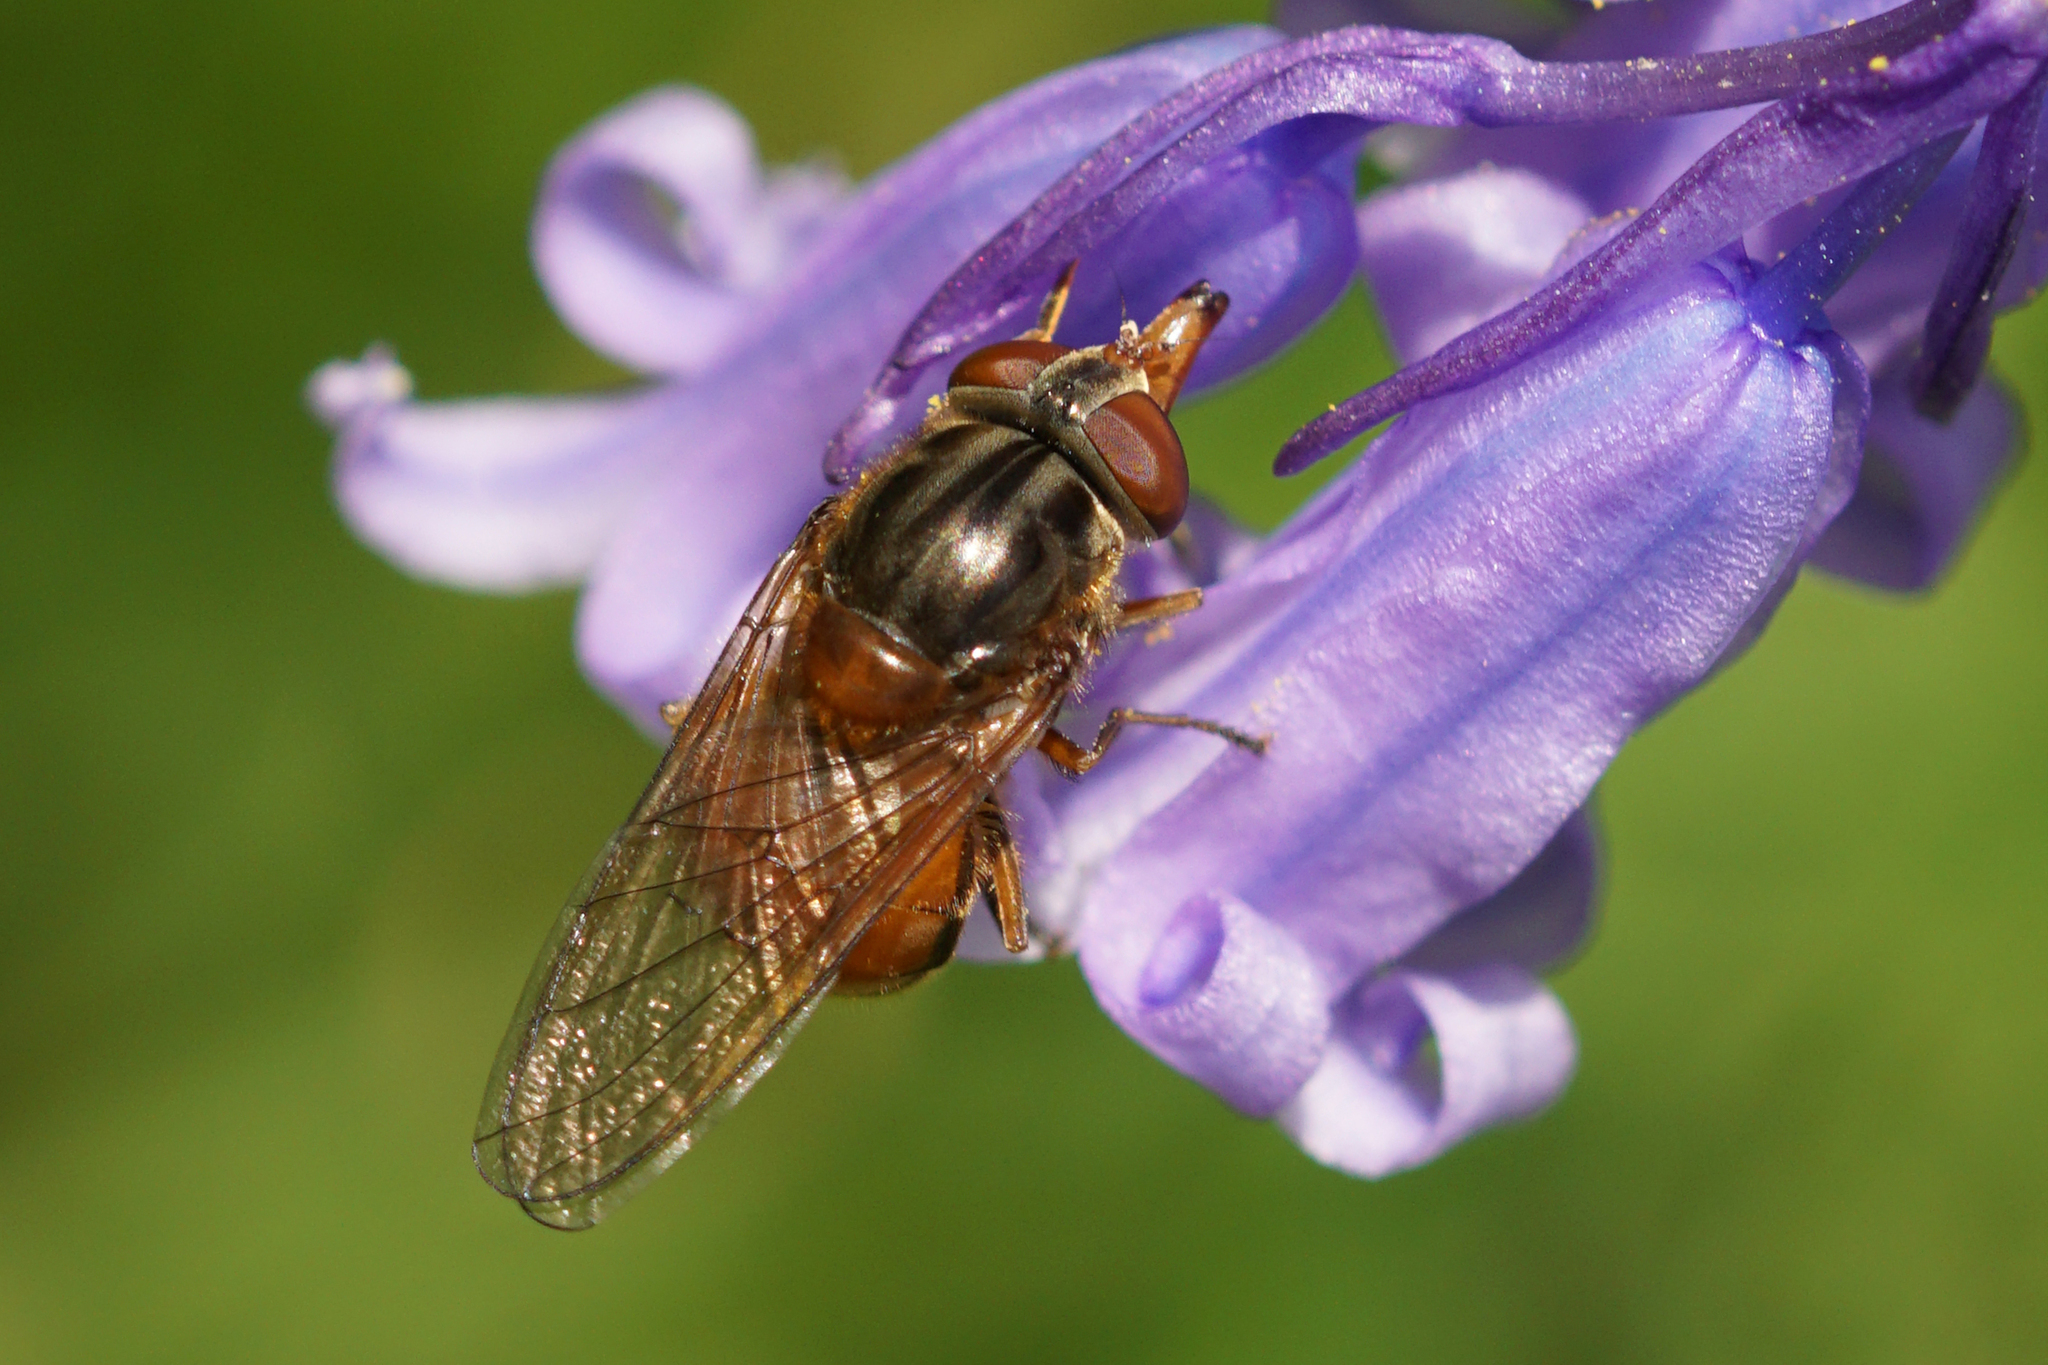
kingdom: Animalia
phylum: Arthropoda
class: Insecta
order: Diptera
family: Syrphidae
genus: Rhingia
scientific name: Rhingia campestris
